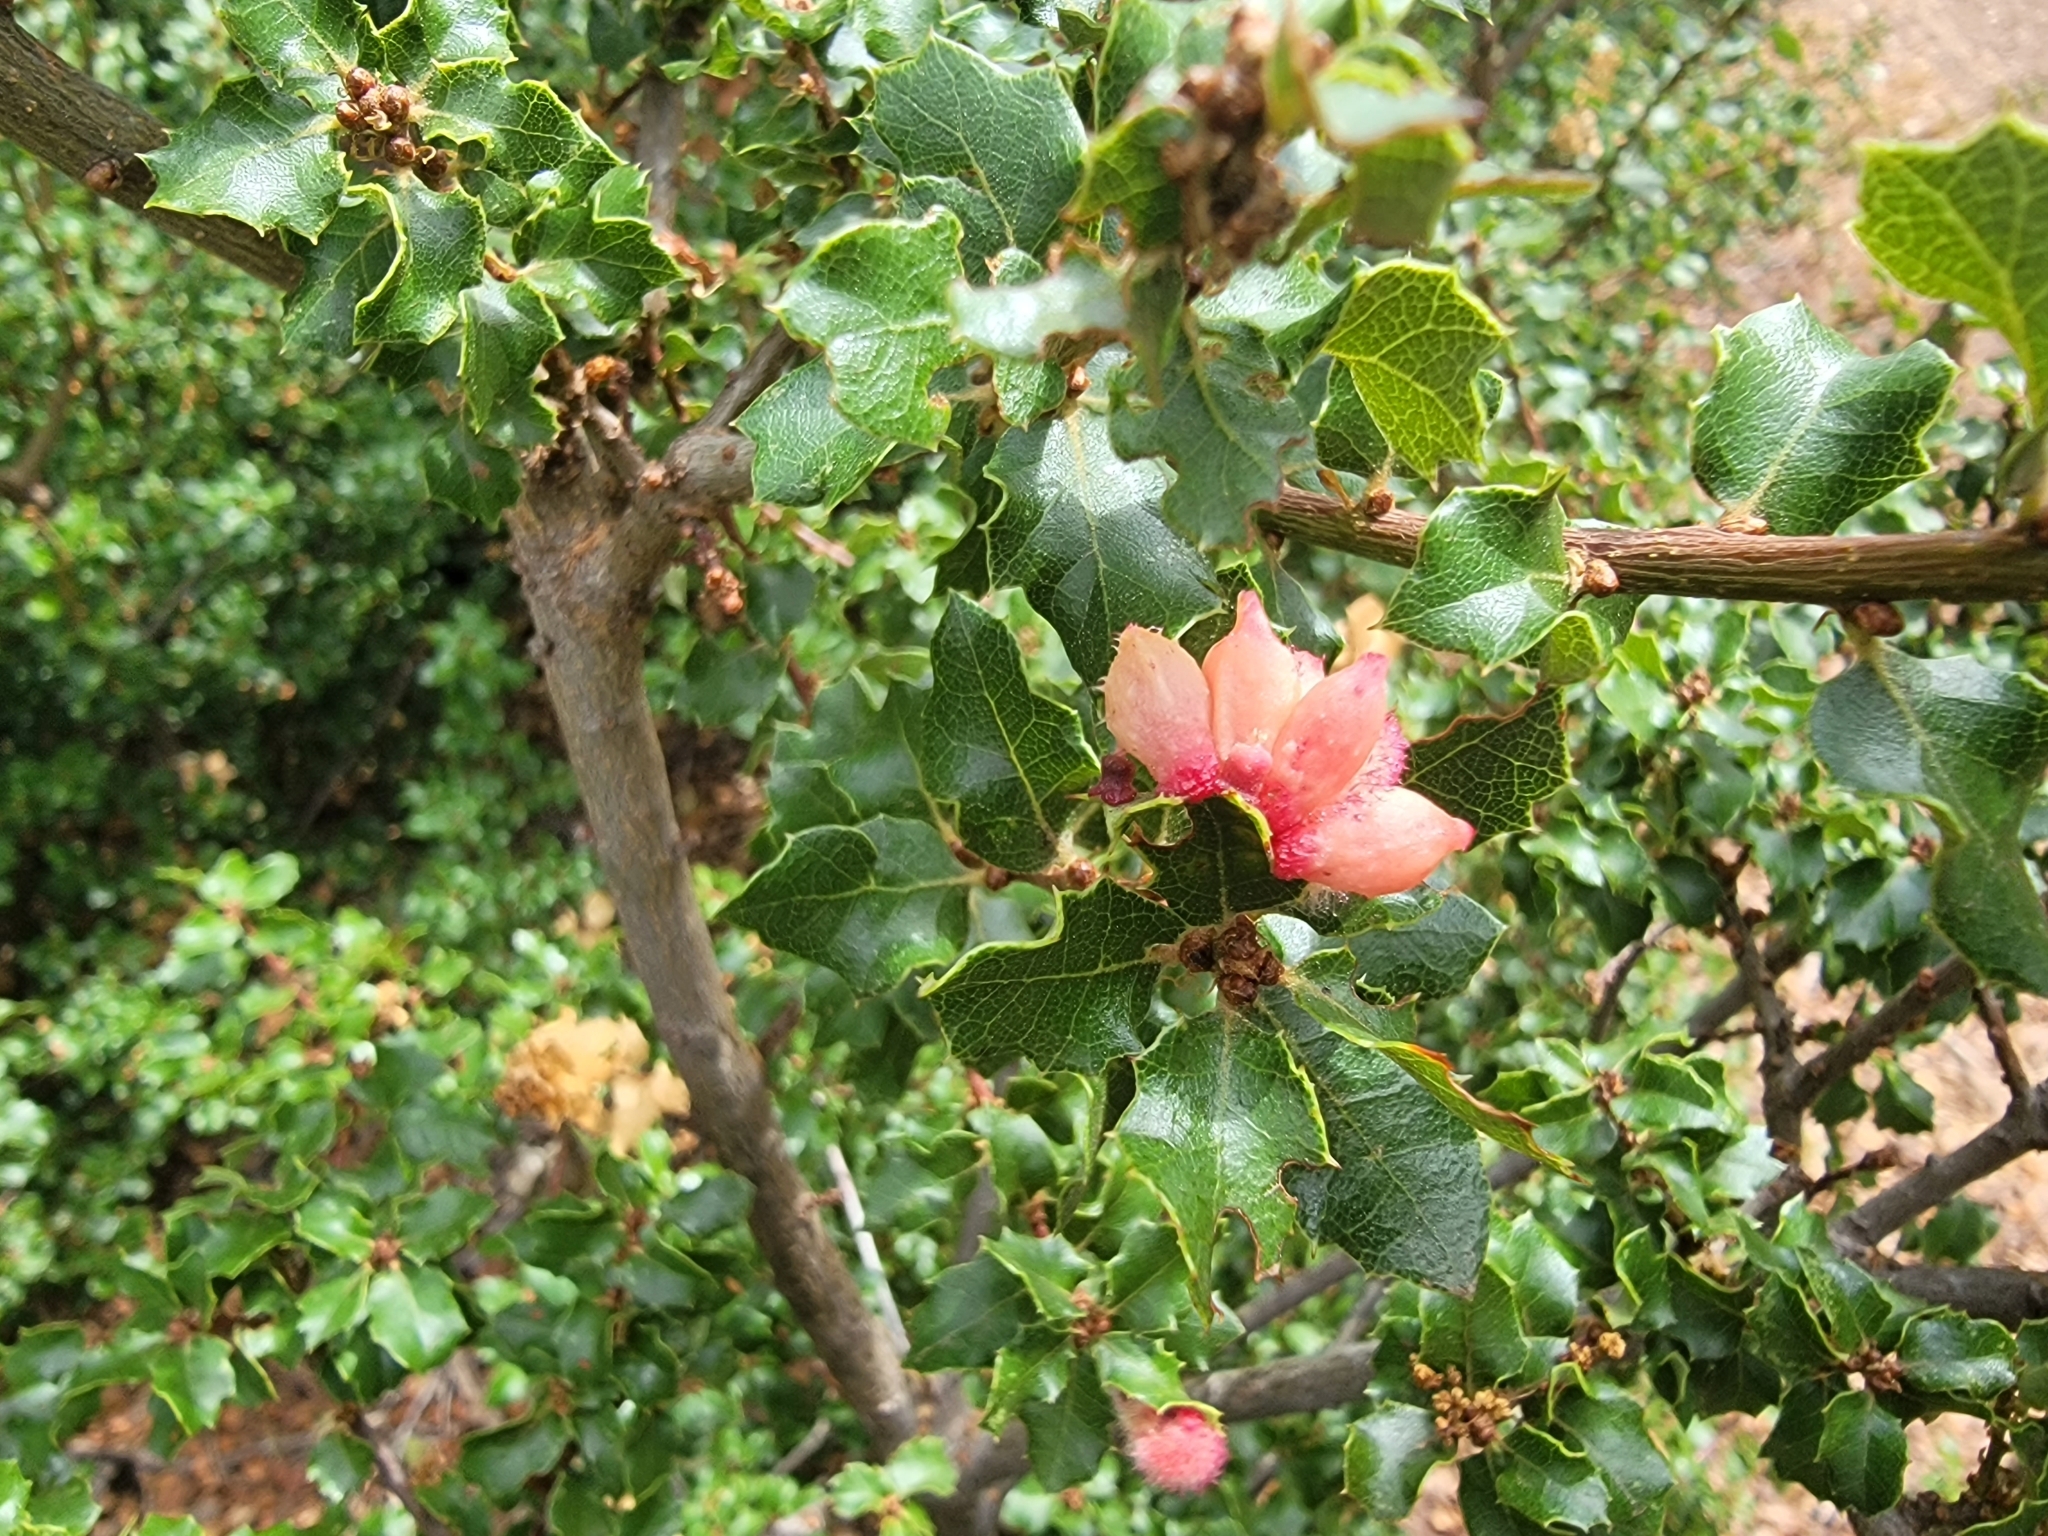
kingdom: Animalia
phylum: Arthropoda
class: Insecta
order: Hymenoptera
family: Cynipidae
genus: Andricus
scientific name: Andricus
